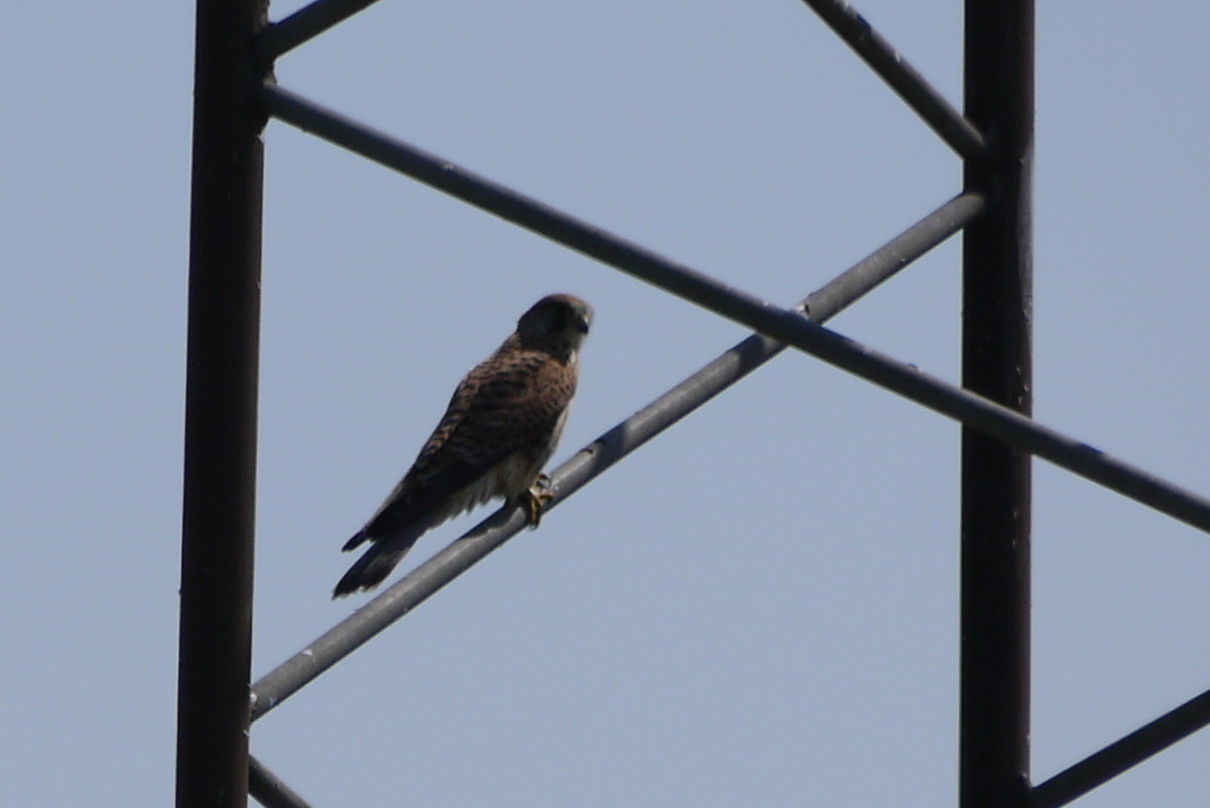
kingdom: Animalia
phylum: Chordata
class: Aves
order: Falconiformes
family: Falconidae
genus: Falco
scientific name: Falco tinnunculus
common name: Common kestrel
